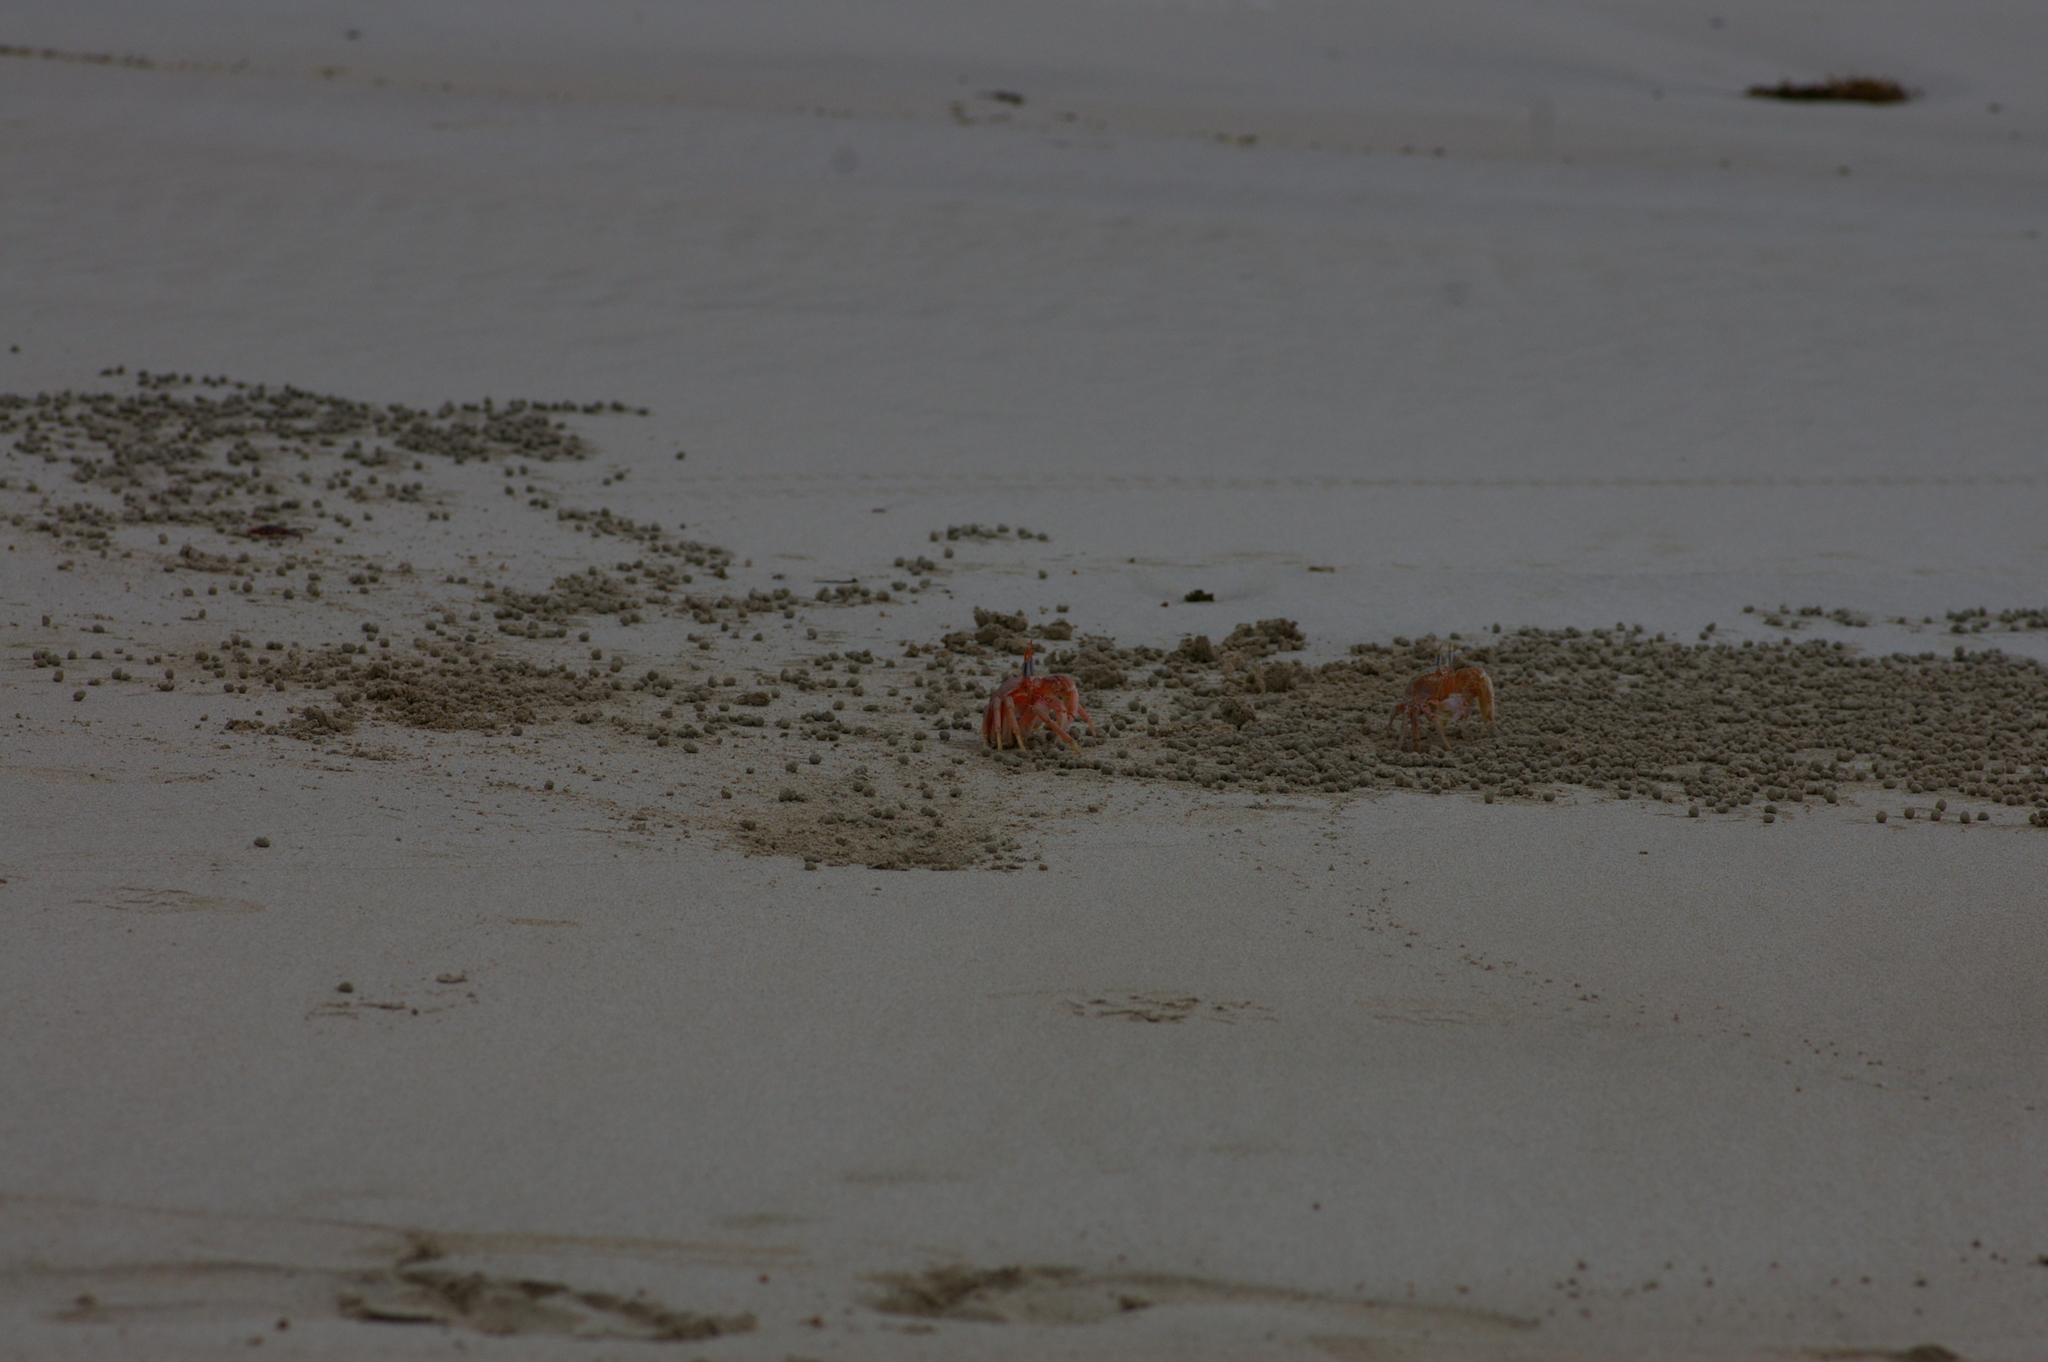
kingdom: Animalia
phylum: Arthropoda
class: Malacostraca
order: Decapoda
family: Ocypodidae
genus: Ocypode
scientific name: Ocypode gaudichaudii
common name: Pacific ghost crab
